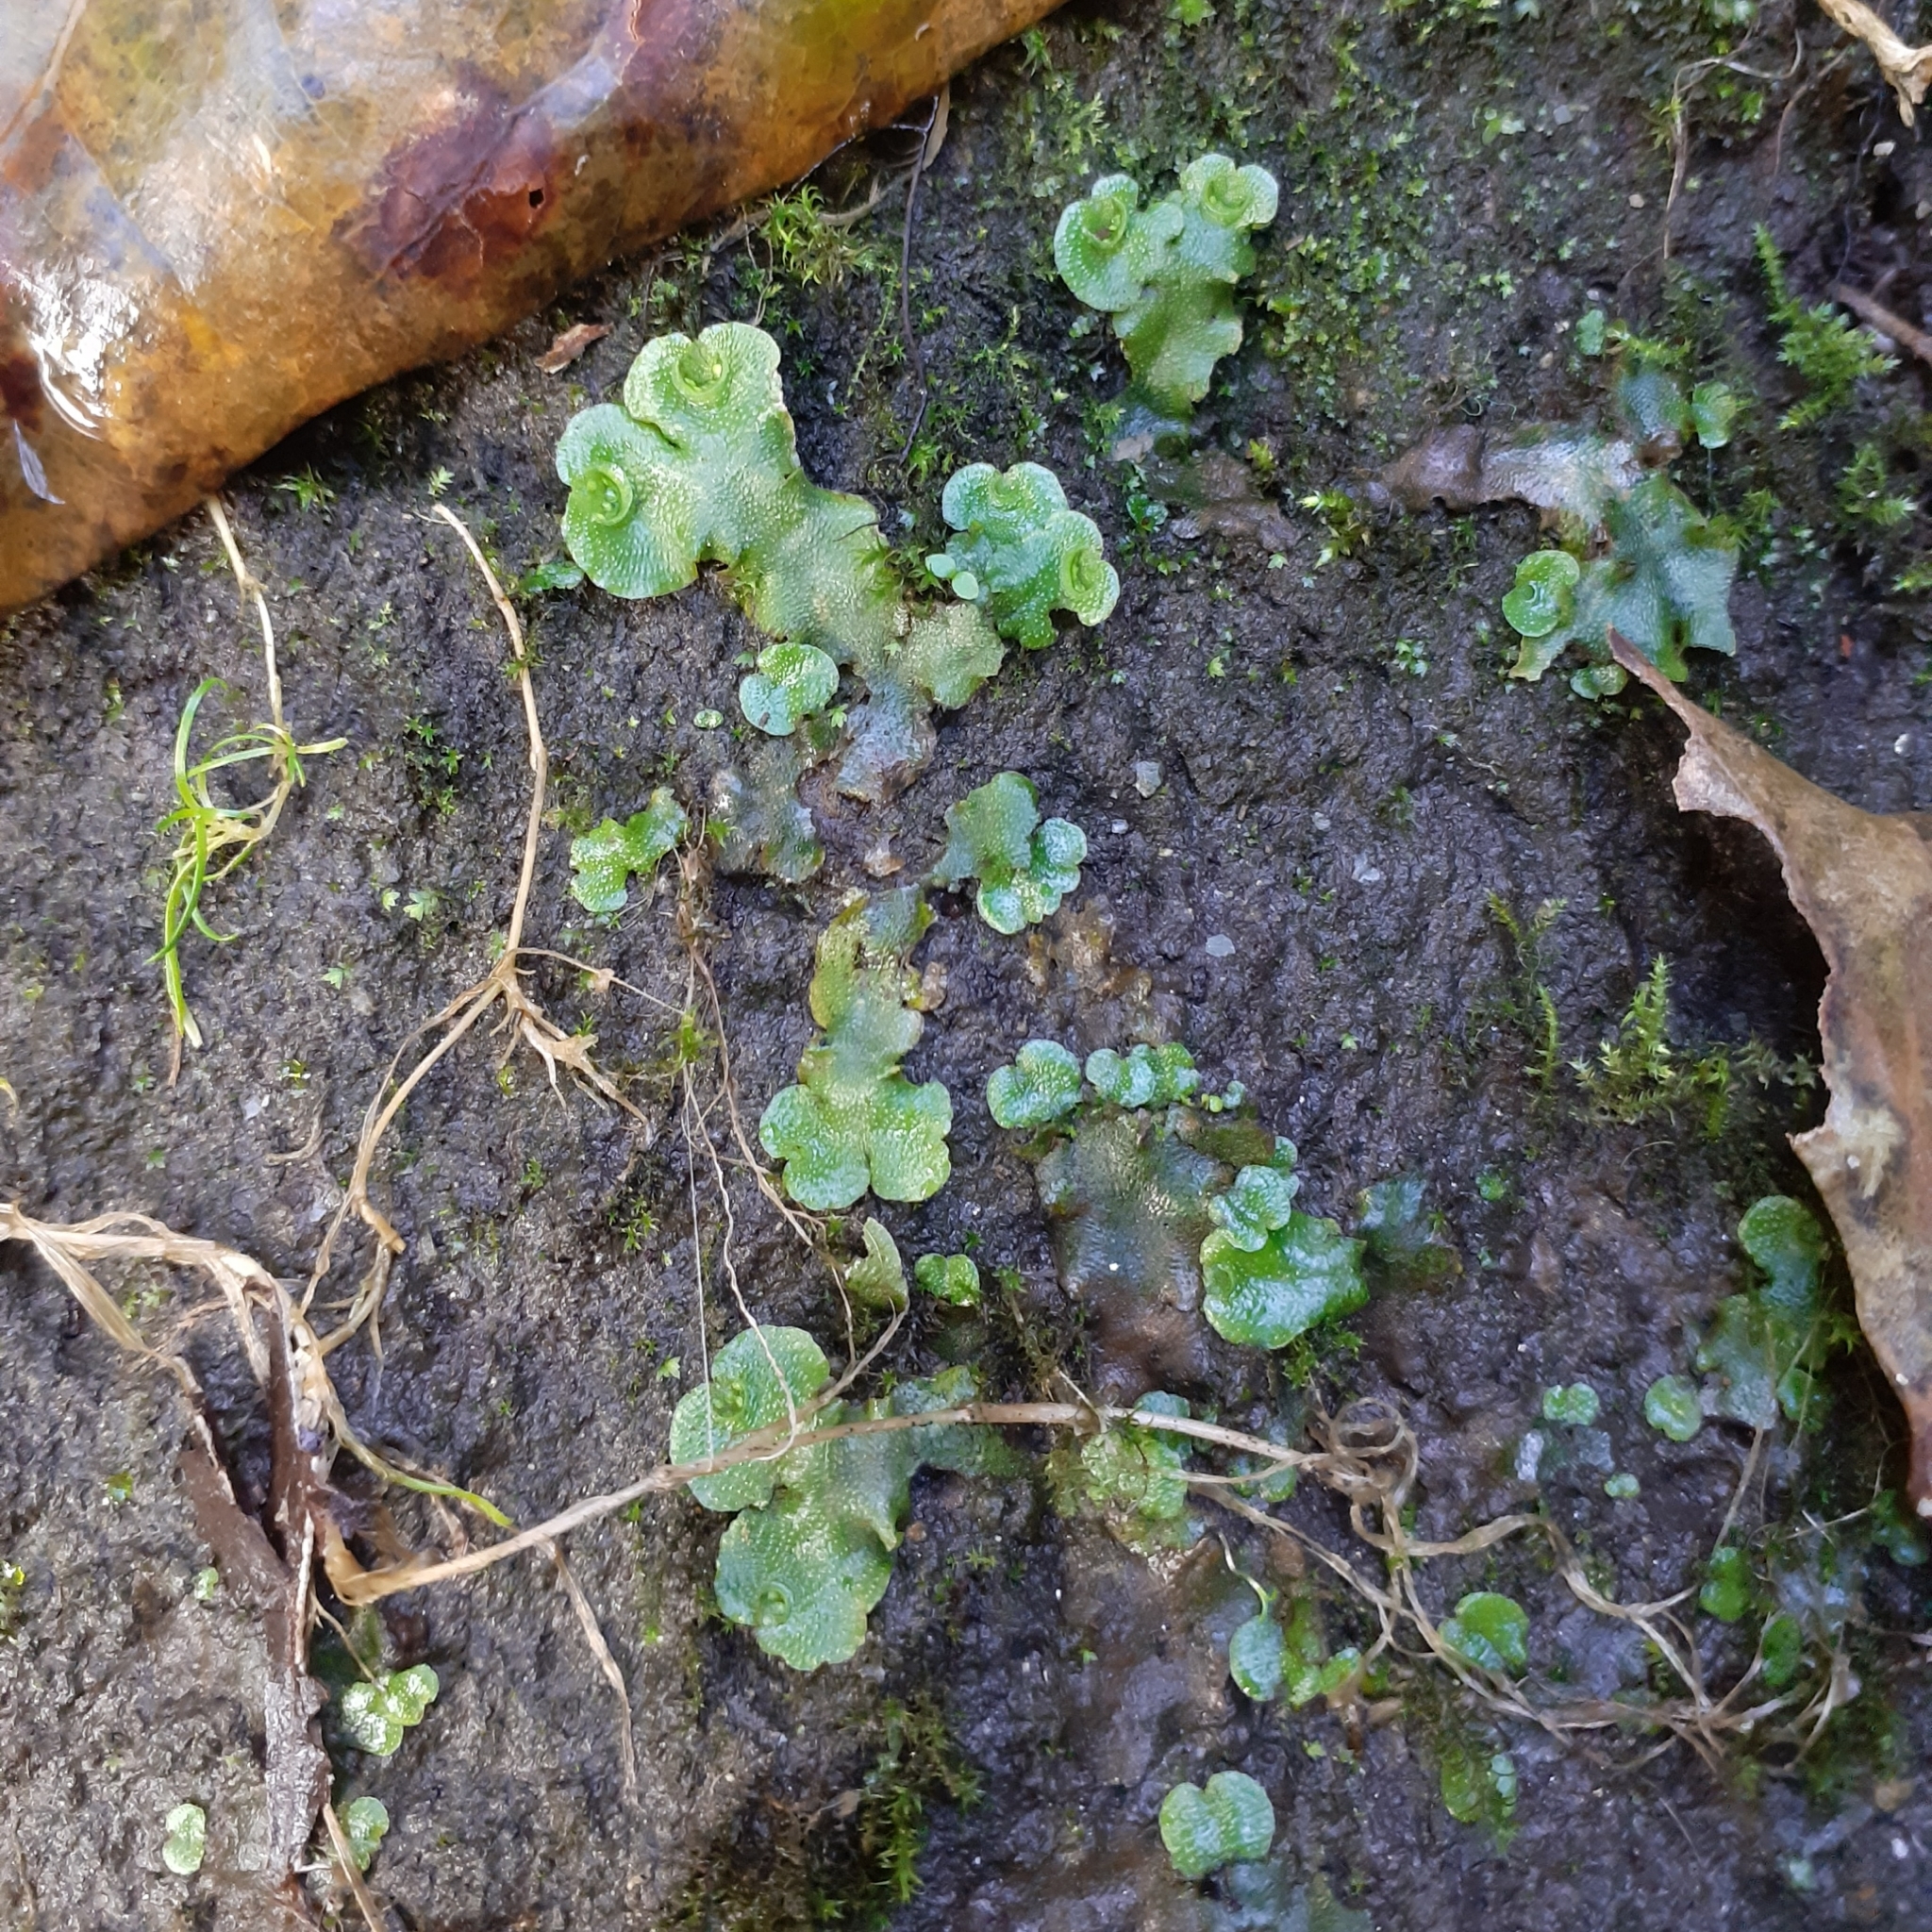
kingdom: Plantae
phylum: Marchantiophyta
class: Marchantiopsida
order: Lunulariales
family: Lunulariaceae
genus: Lunularia
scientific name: Lunularia cruciata
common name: Crescent-cup liverwort
